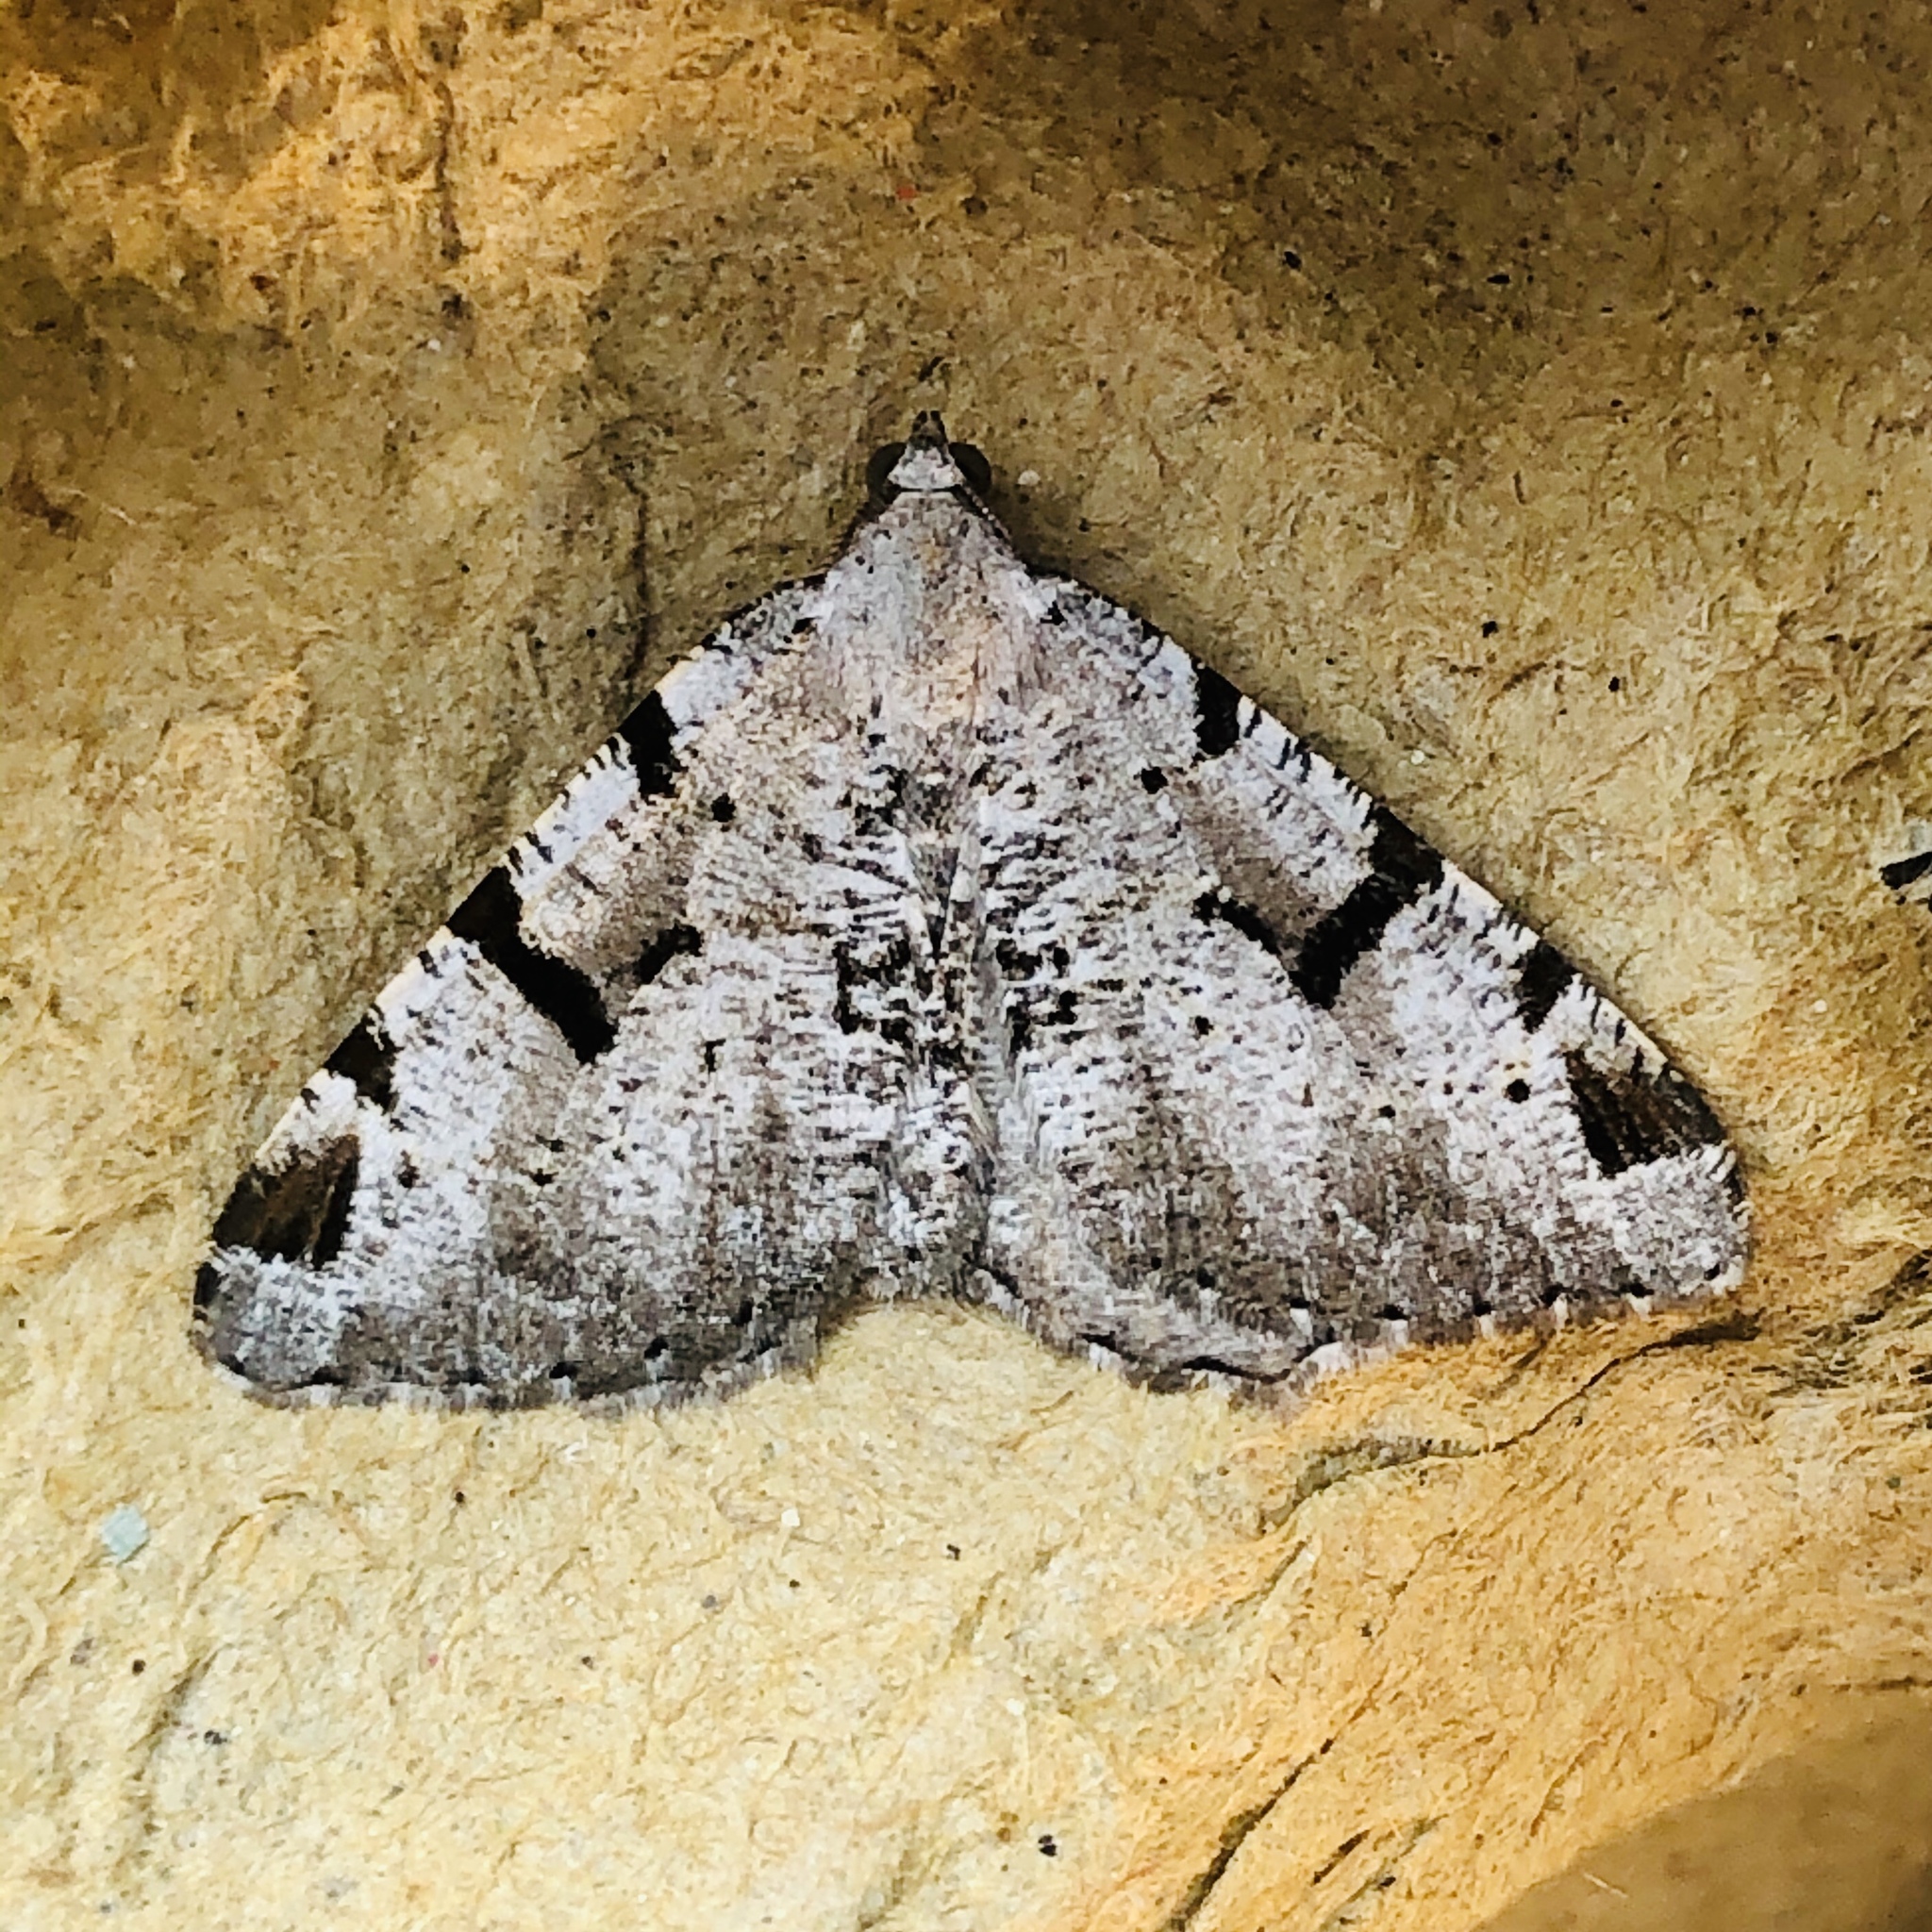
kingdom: Animalia
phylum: Arthropoda
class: Insecta
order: Lepidoptera
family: Geometridae
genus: Macaria
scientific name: Macaria wauaria
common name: V-moth
